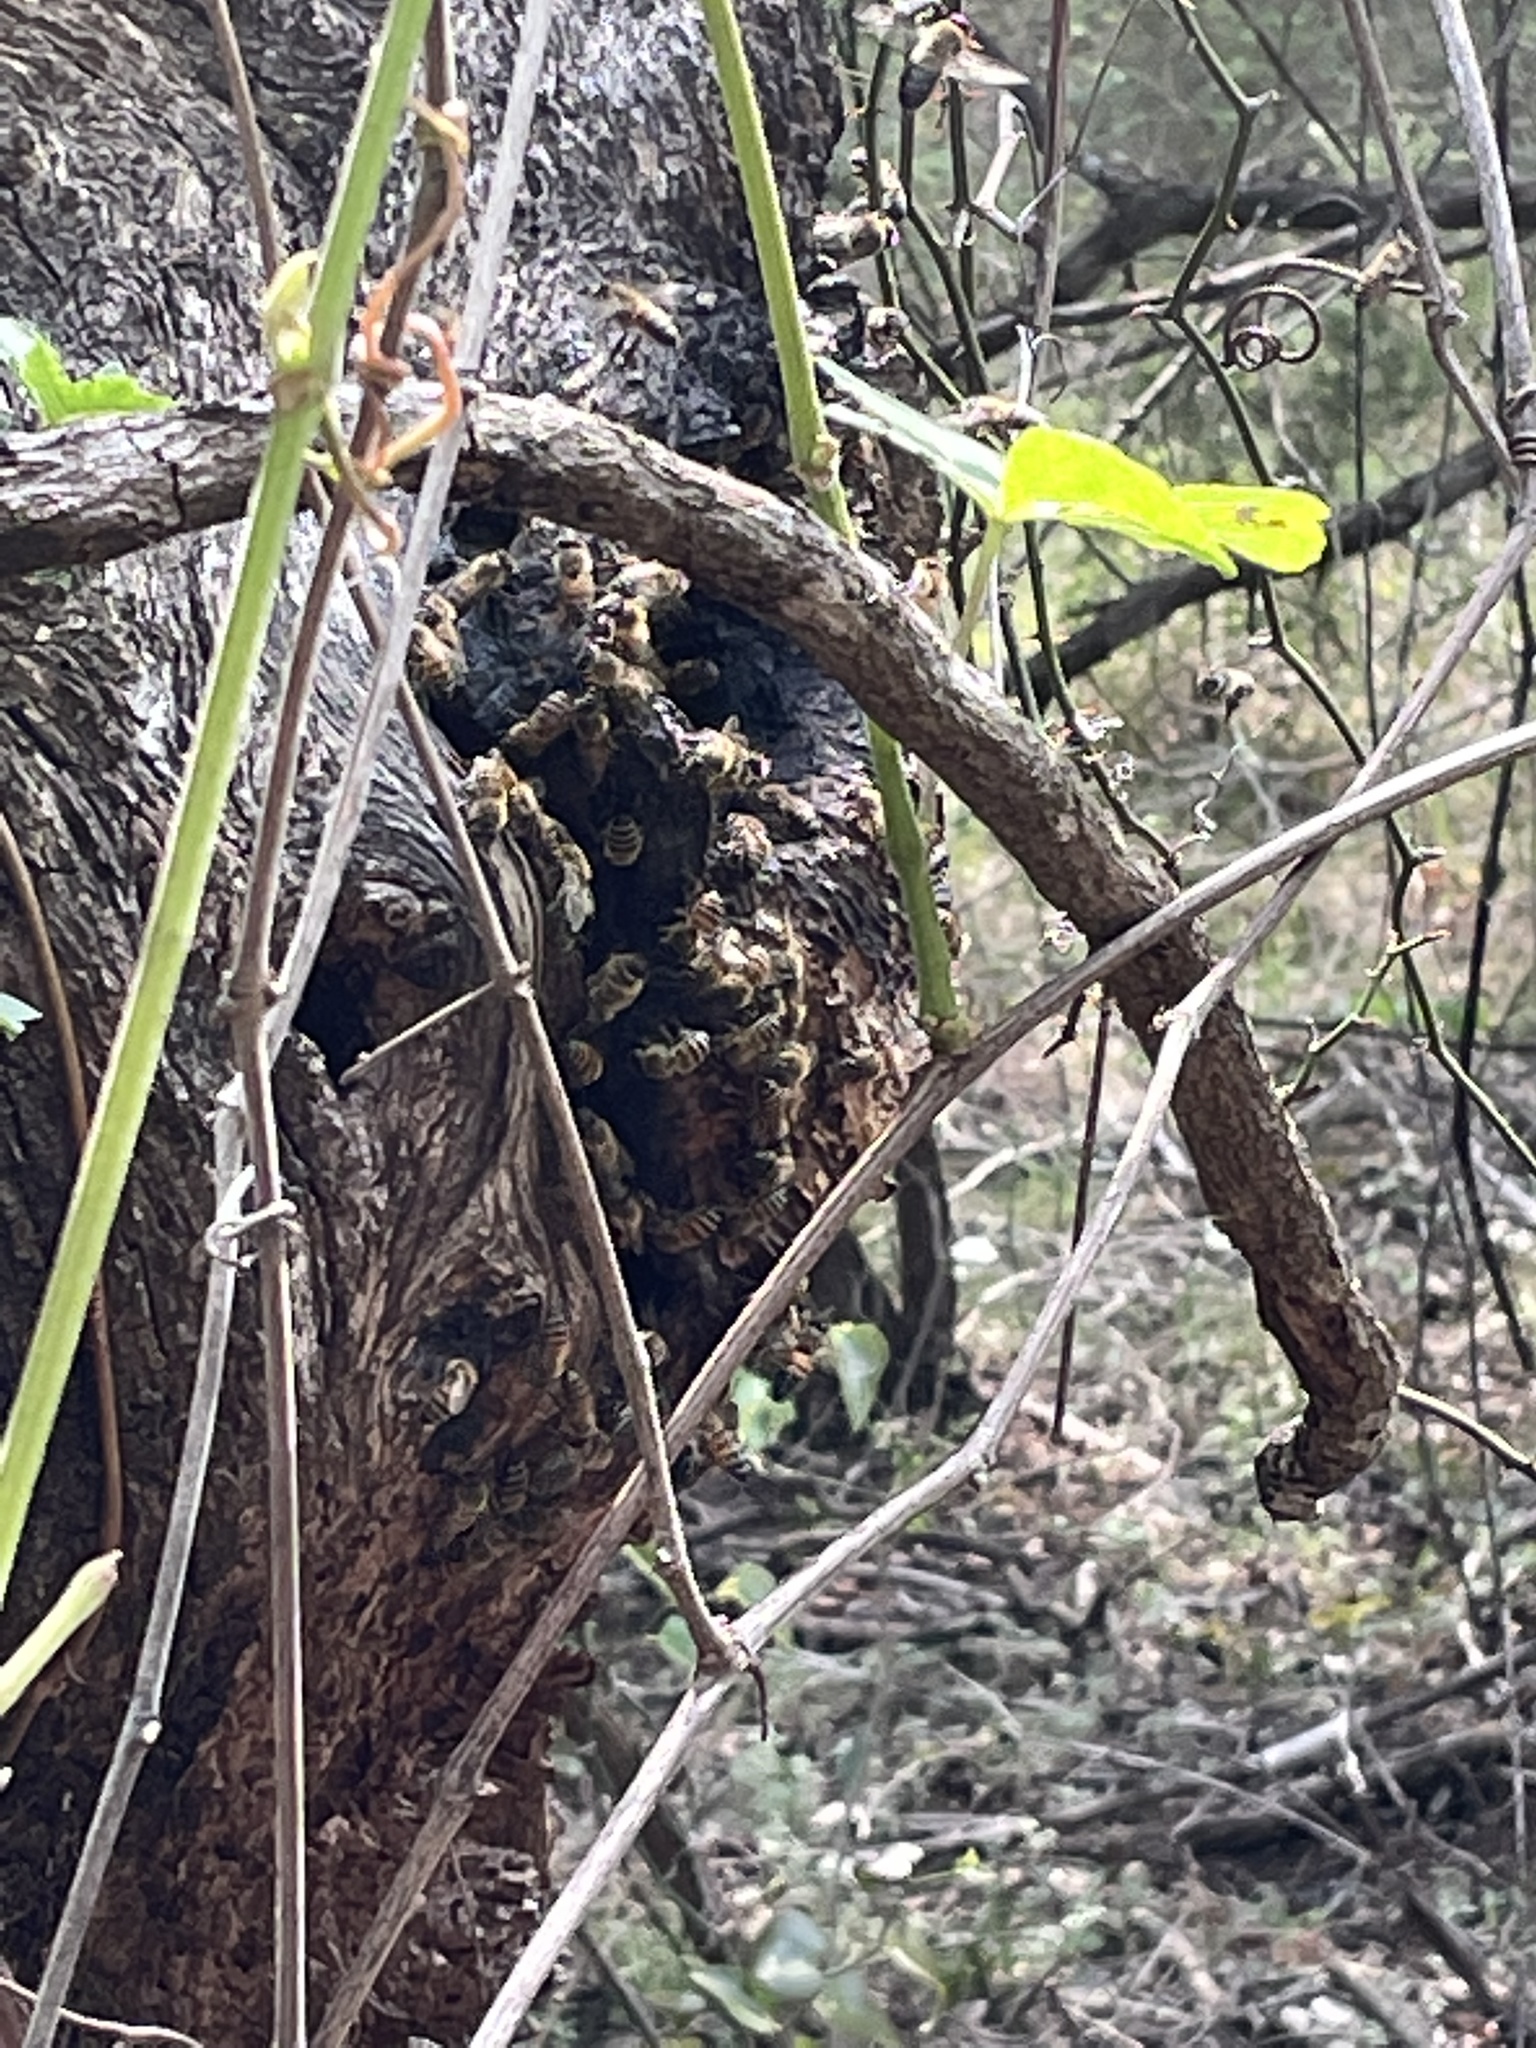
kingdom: Animalia
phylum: Arthropoda
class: Insecta
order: Hymenoptera
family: Apidae
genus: Apis
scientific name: Apis mellifera
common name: Honey bee
